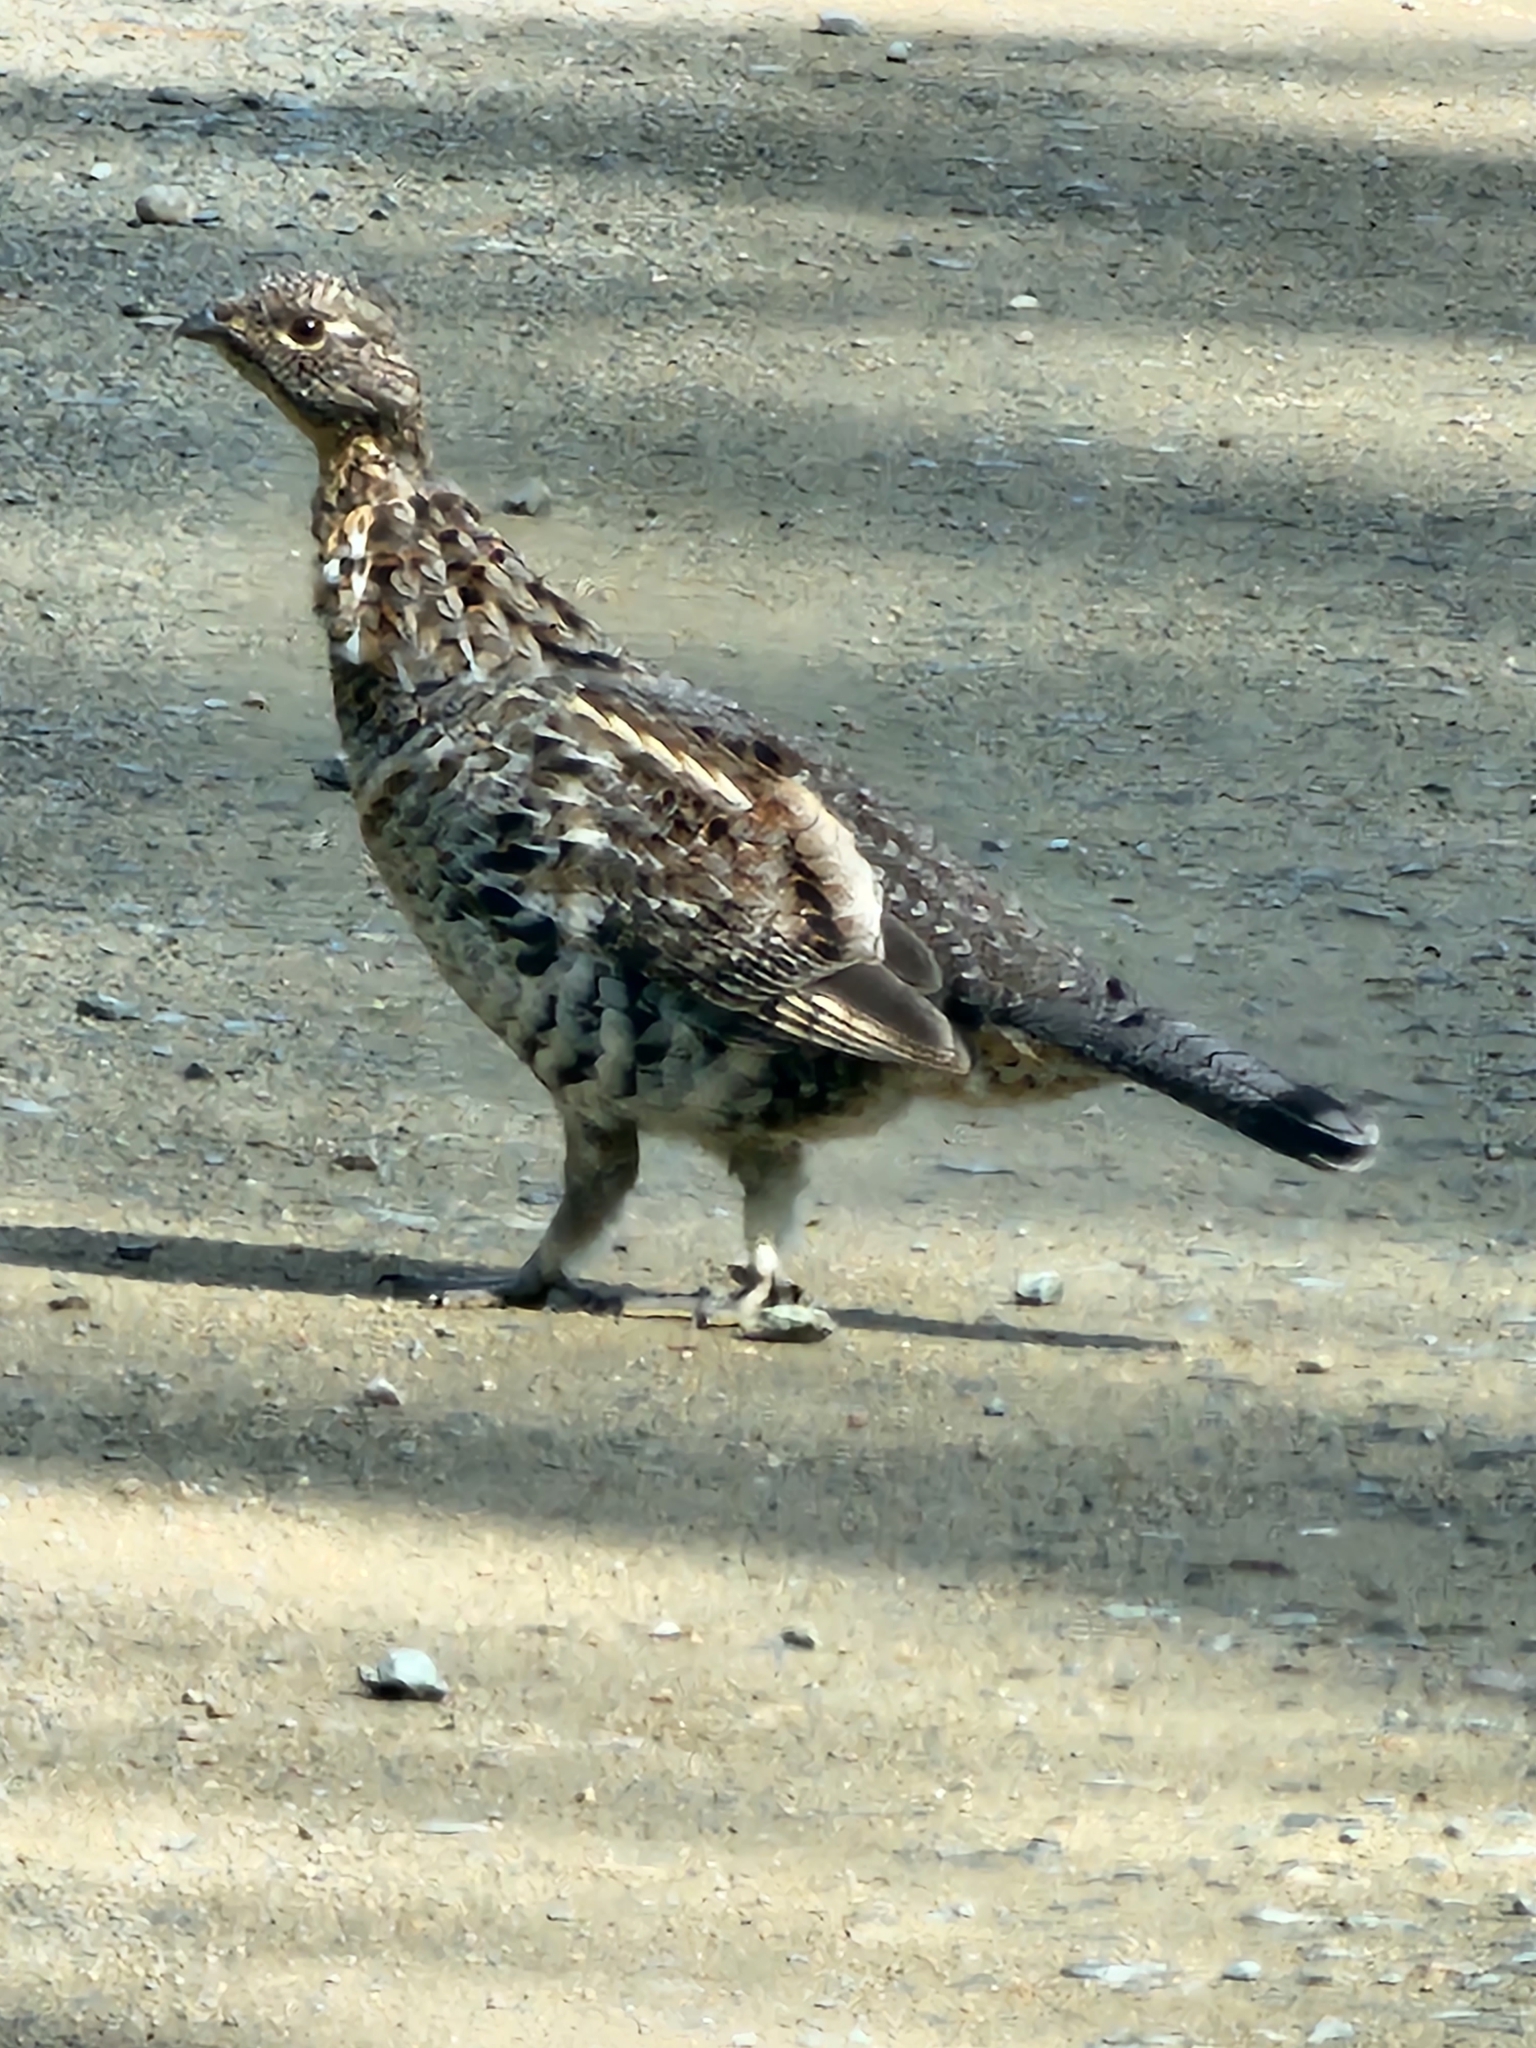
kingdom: Animalia
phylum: Chordata
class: Aves
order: Galliformes
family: Phasianidae
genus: Bonasa
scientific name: Bonasa umbellus
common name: Ruffed grouse
